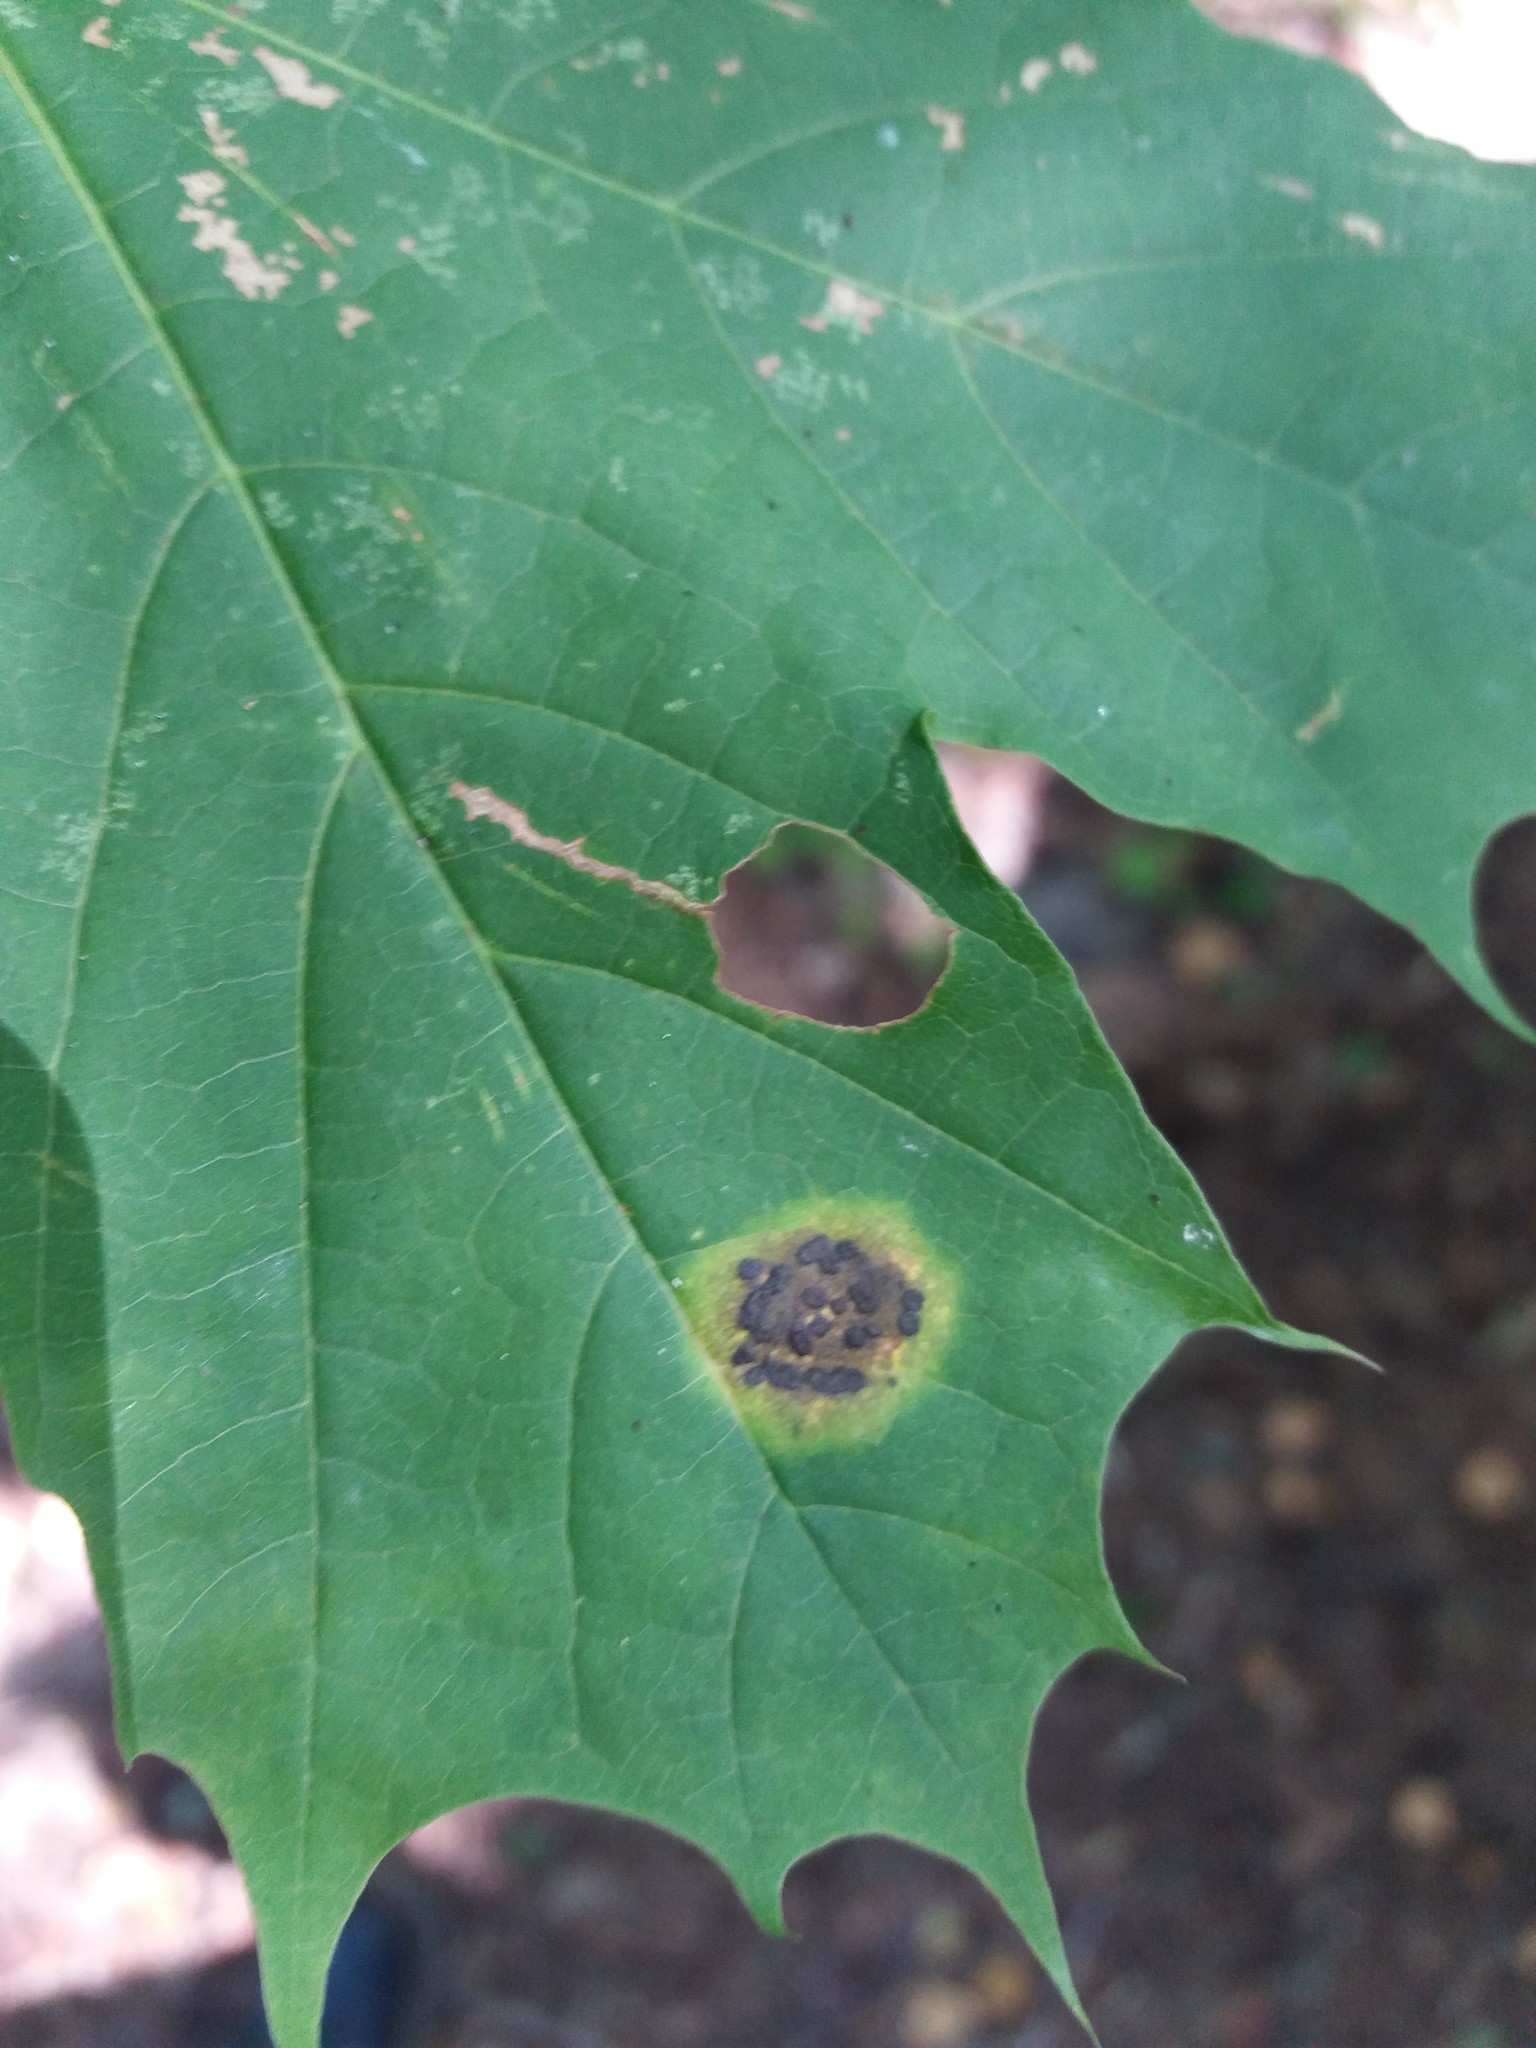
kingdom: Fungi
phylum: Ascomycota
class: Leotiomycetes
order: Rhytismatales
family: Rhytismataceae
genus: Rhytisma
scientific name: Rhytisma acerinum
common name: European tar spot
